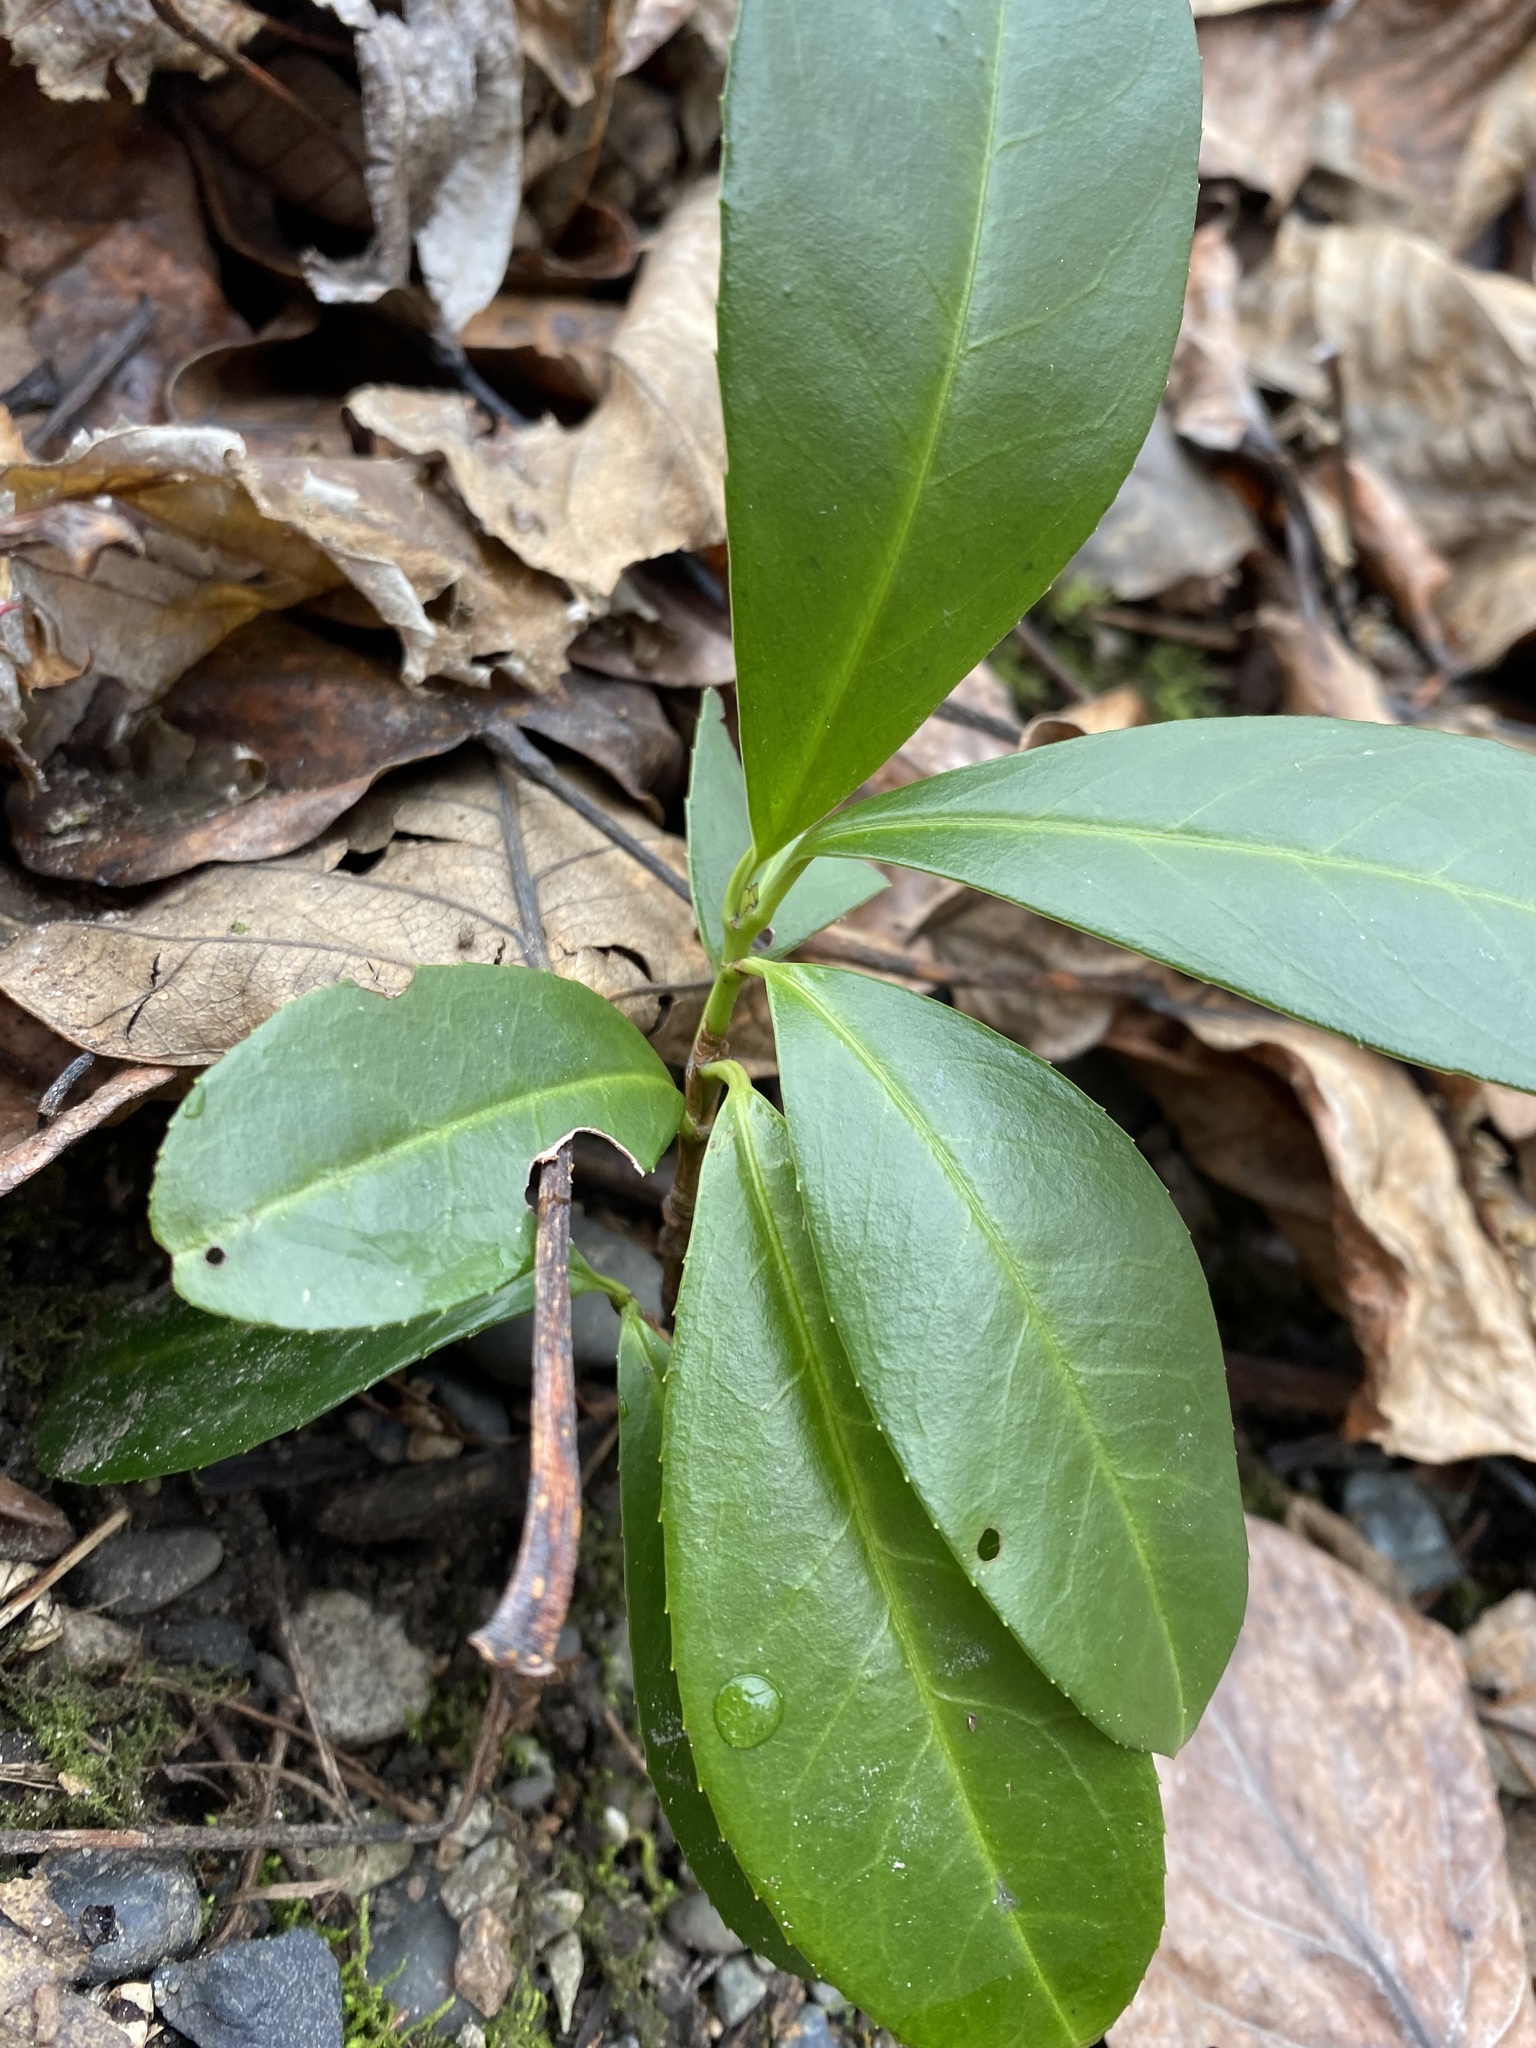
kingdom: Plantae
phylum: Tracheophyta
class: Magnoliopsida
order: Rosales
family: Rosaceae
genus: Prunus
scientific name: Prunus laurocerasus
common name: Cherry laurel
